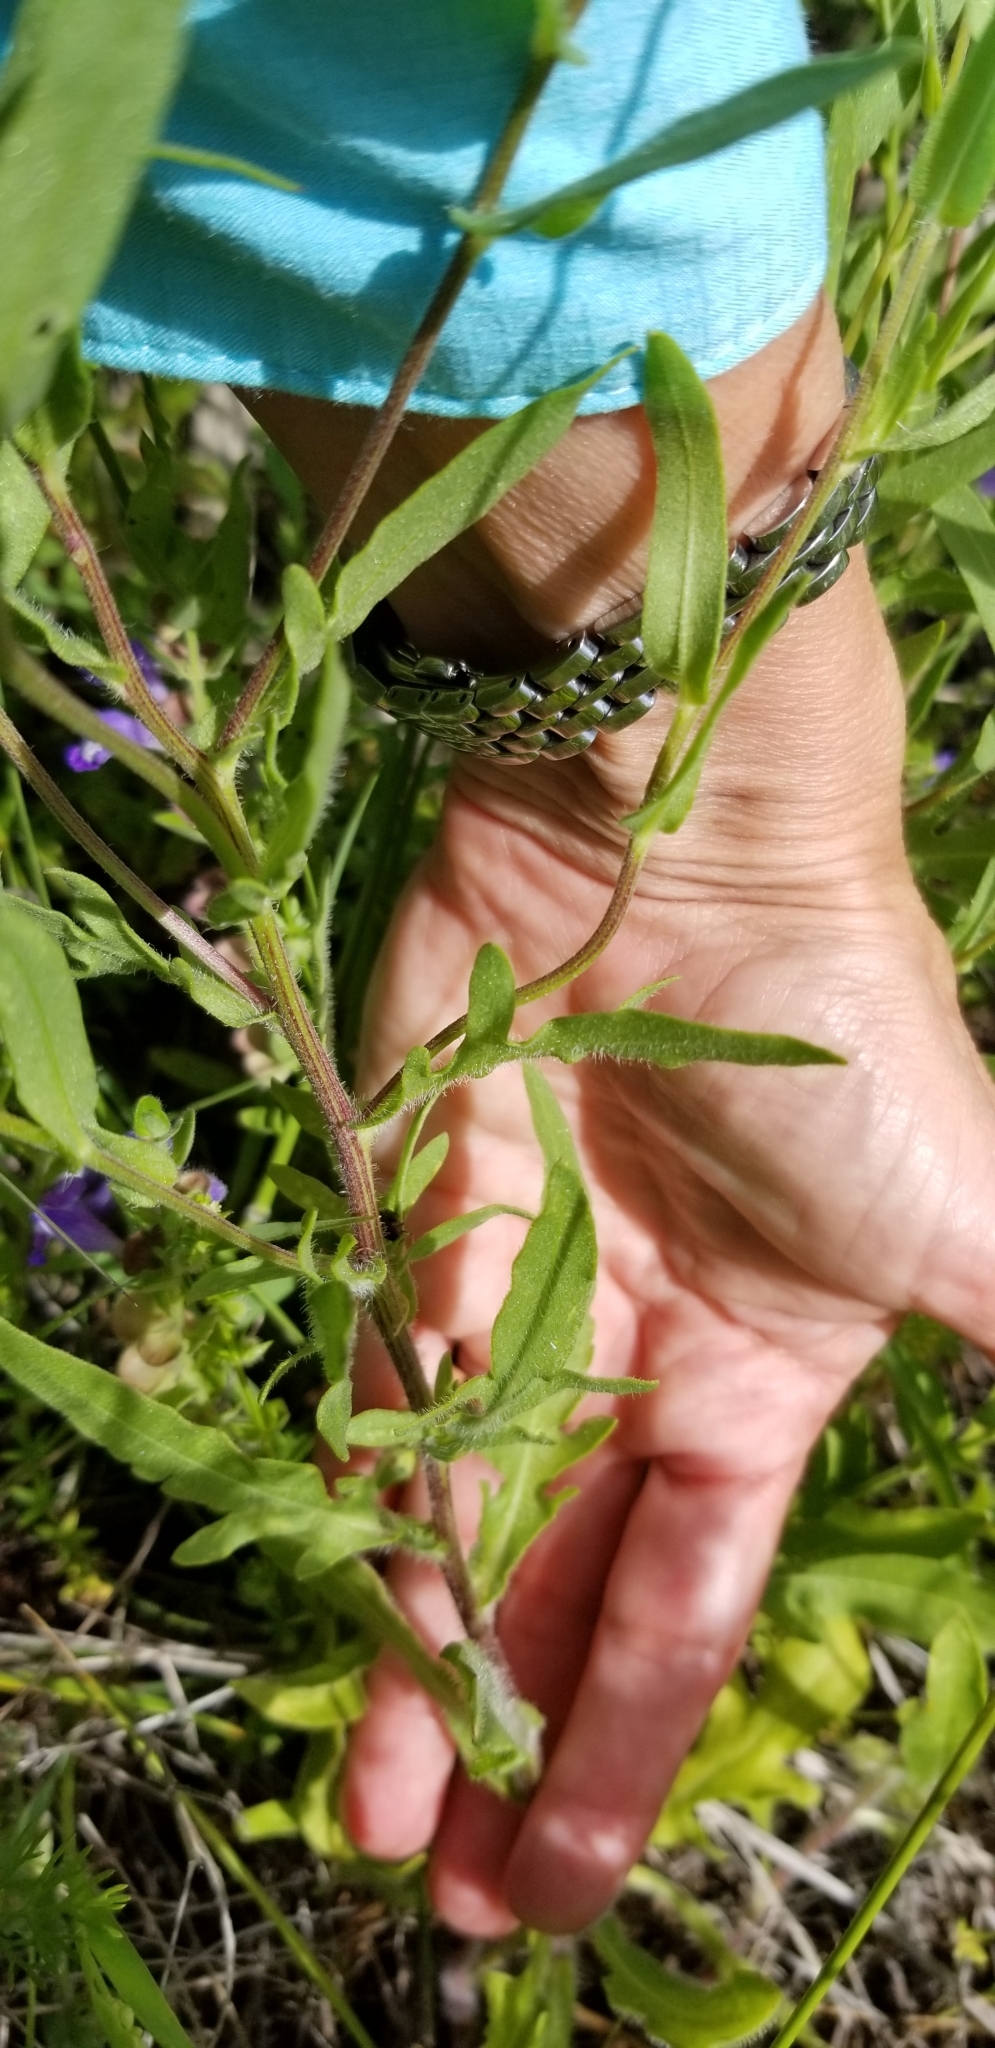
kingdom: Plantae
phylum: Tracheophyta
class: Magnoliopsida
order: Asterales
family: Asteraceae
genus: Gaillardia
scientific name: Gaillardia pulchella
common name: Firewheel
